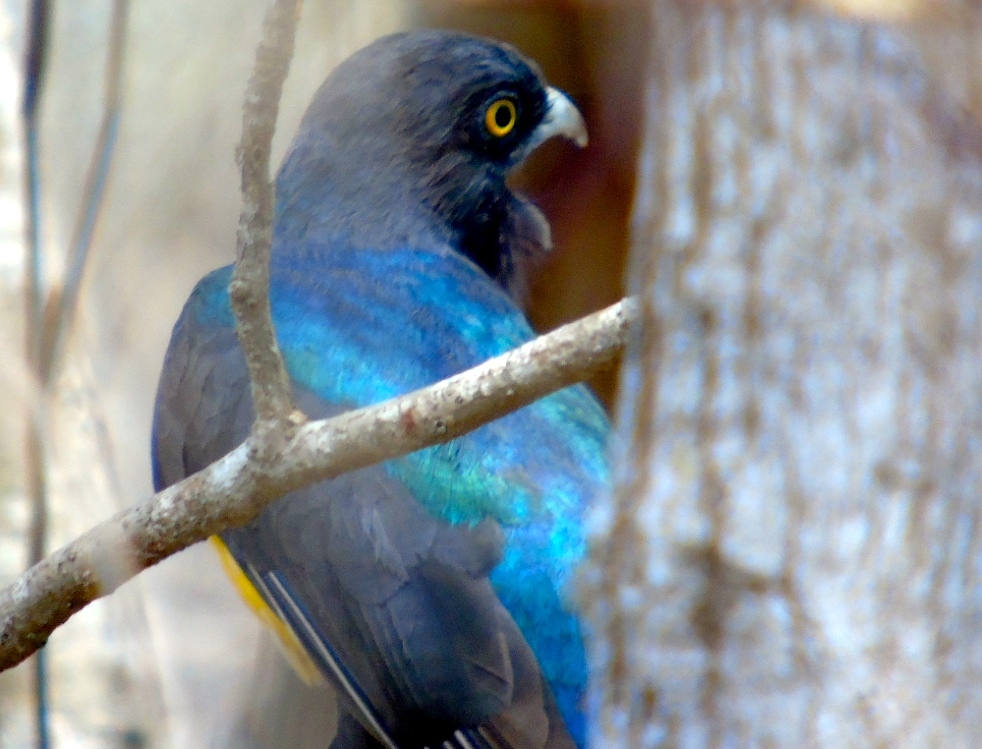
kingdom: Animalia
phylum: Chordata
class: Aves
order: Trogoniformes
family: Trogonidae
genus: Trogon
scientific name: Trogon citreolus
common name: Citreoline trogon
